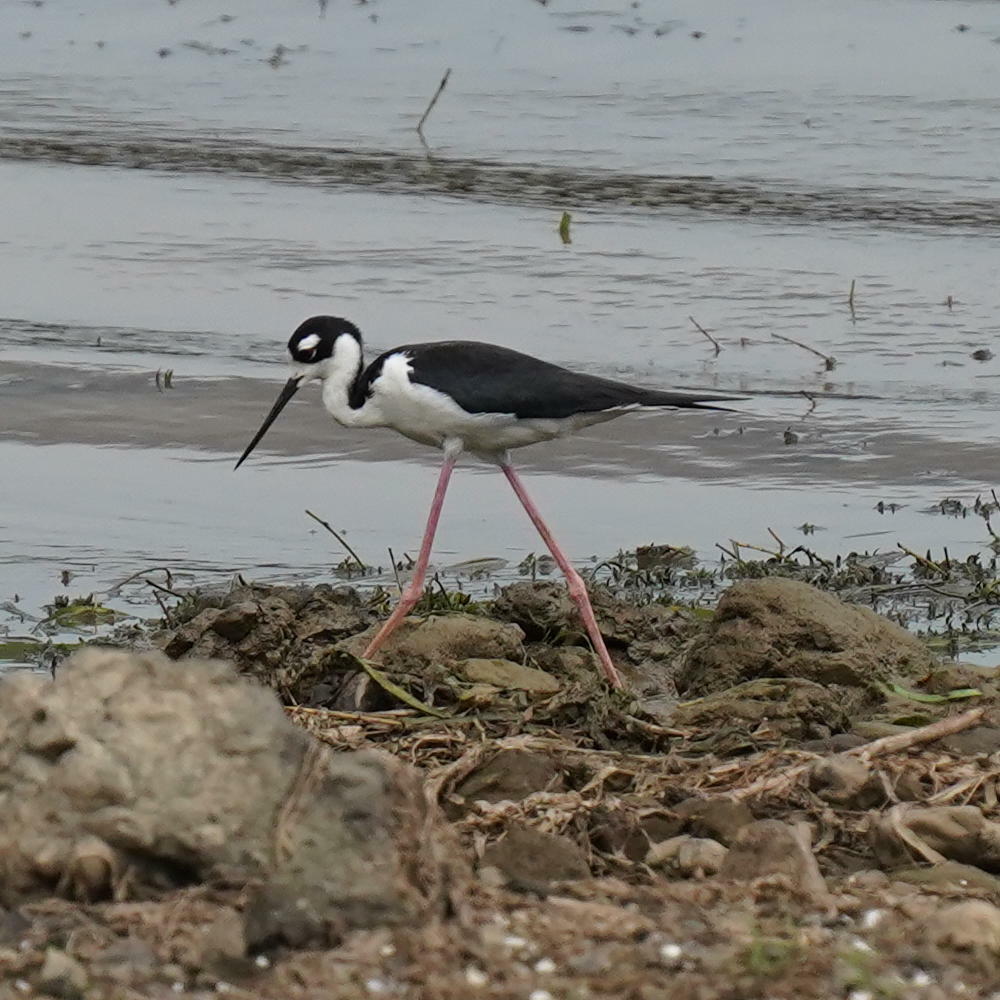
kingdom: Animalia
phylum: Chordata
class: Aves
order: Charadriiformes
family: Recurvirostridae
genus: Himantopus
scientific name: Himantopus mexicanus
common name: Black-necked stilt
